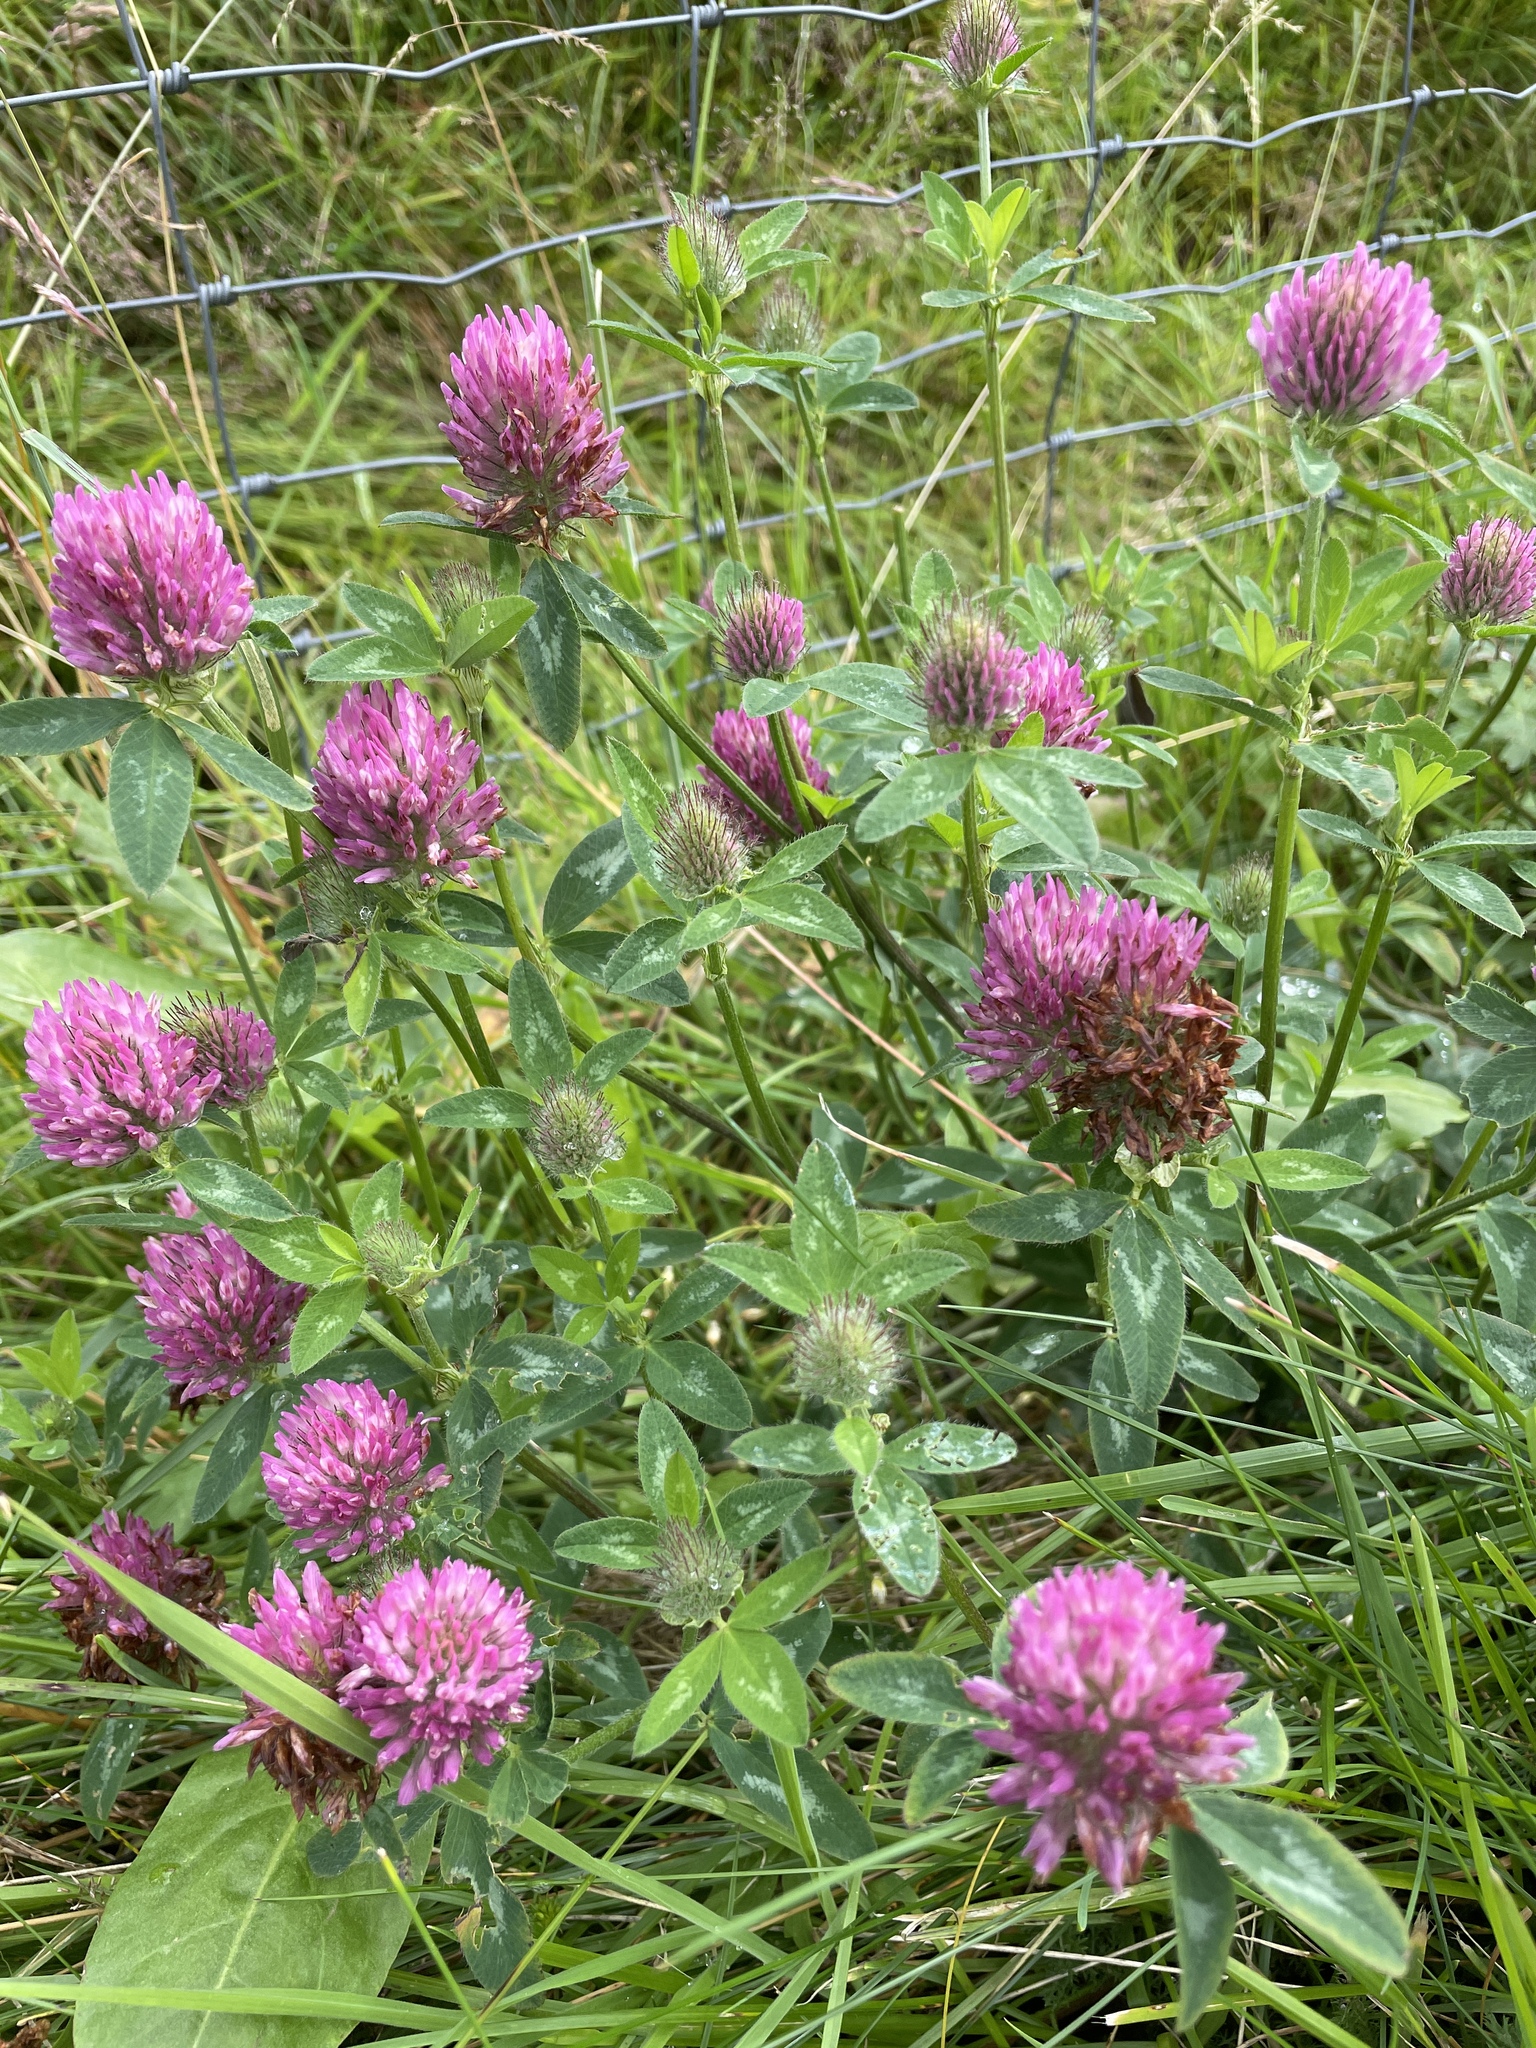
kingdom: Plantae
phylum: Tracheophyta
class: Magnoliopsida
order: Fabales
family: Fabaceae
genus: Trifolium
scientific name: Trifolium pratense
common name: Red clover
